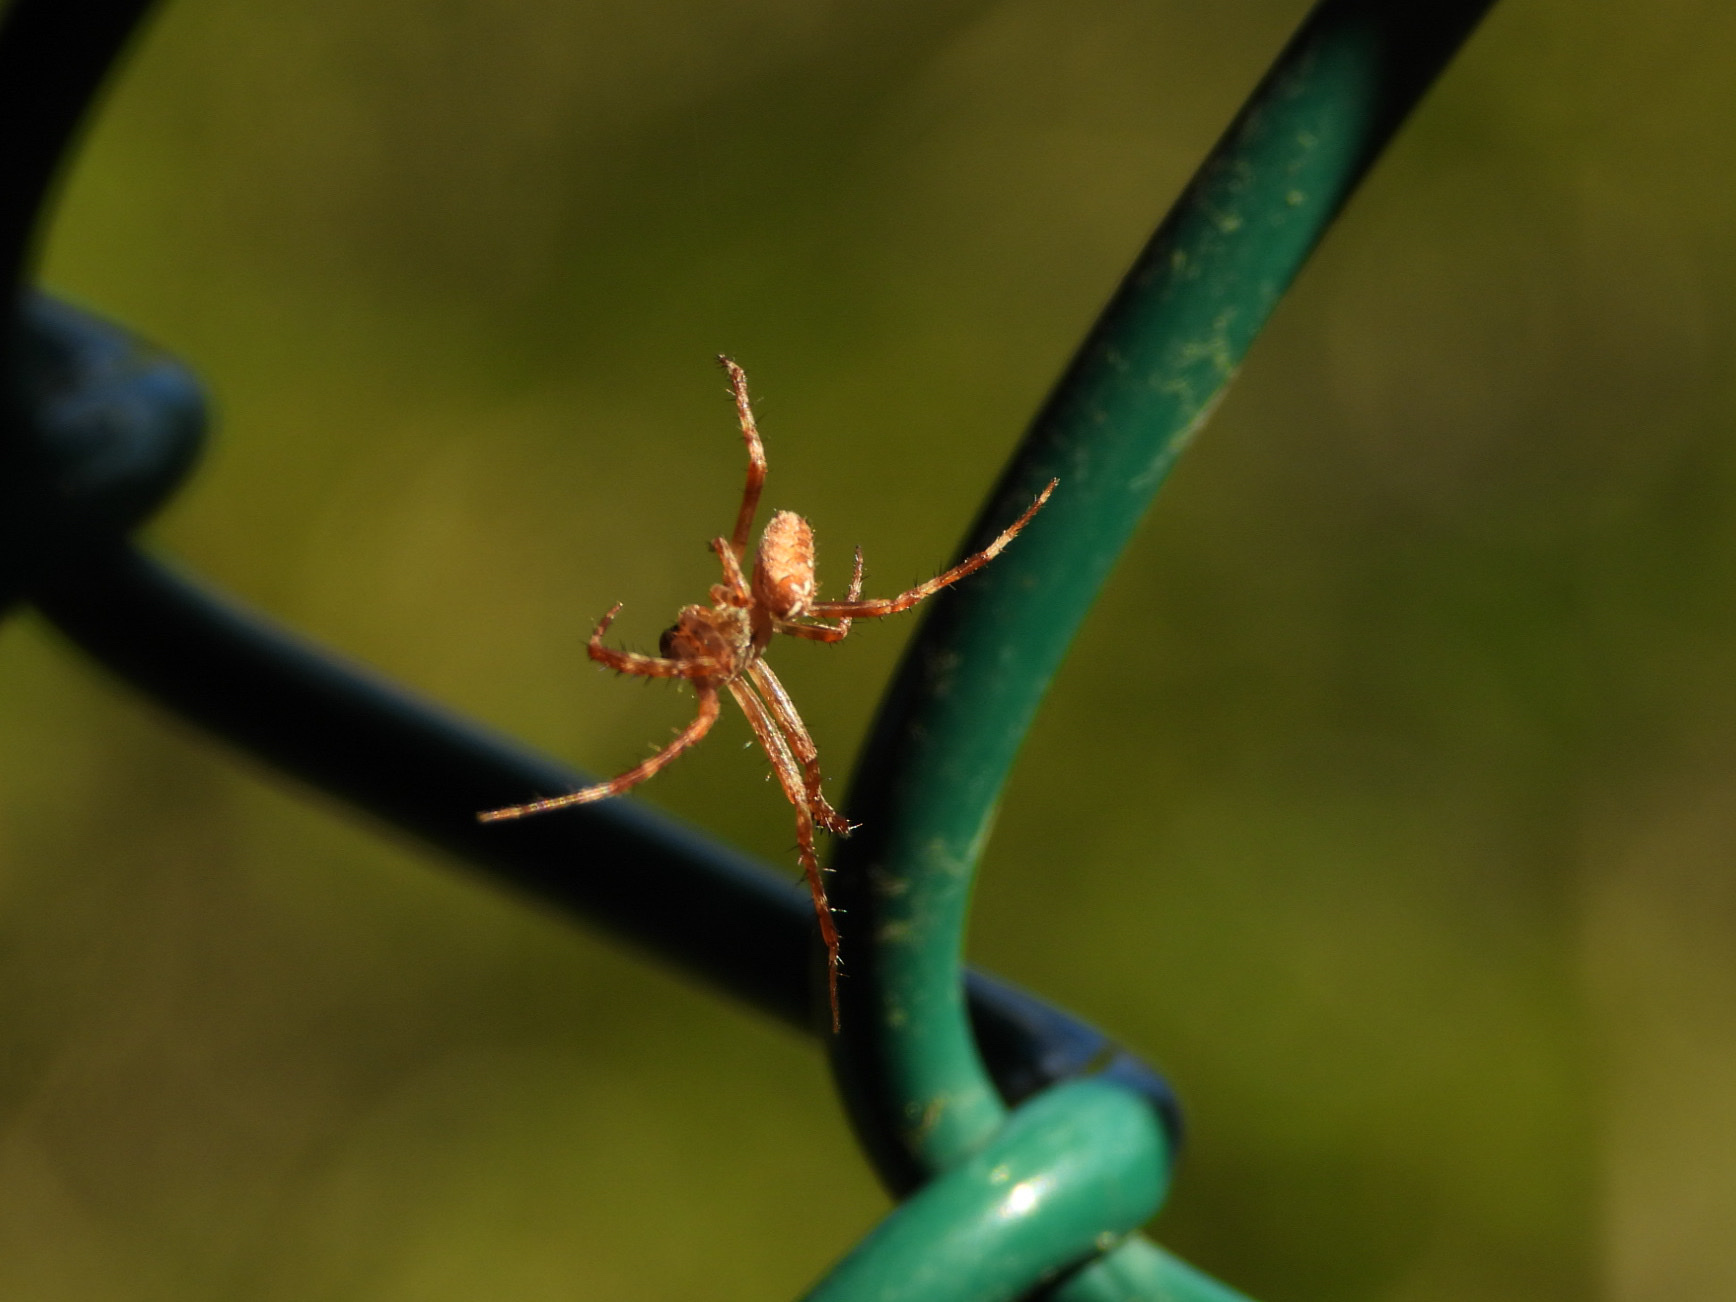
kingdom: Animalia
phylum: Arthropoda
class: Arachnida
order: Araneae
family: Araneidae
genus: Araneus
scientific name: Araneus diadematus
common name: Cross orbweaver
